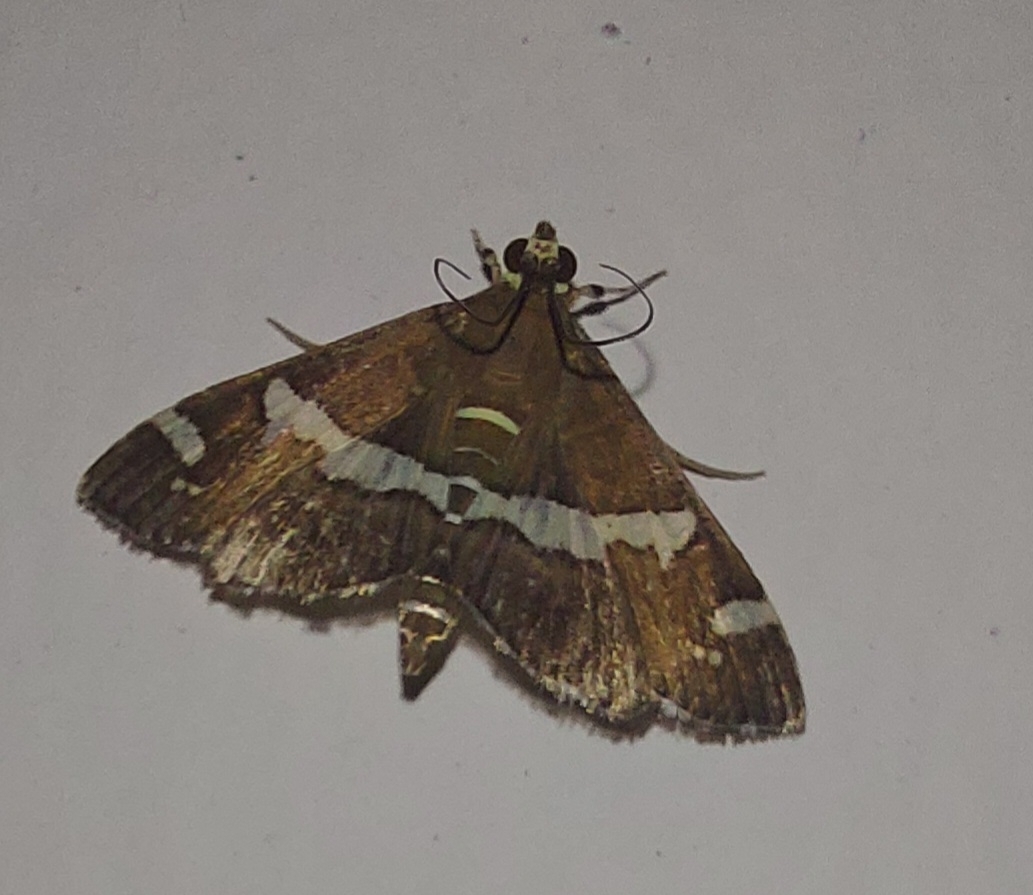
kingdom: Animalia
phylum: Arthropoda
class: Insecta
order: Lepidoptera
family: Crambidae
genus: Spoladea
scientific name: Spoladea recurvalis
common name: Beet webworm moth
